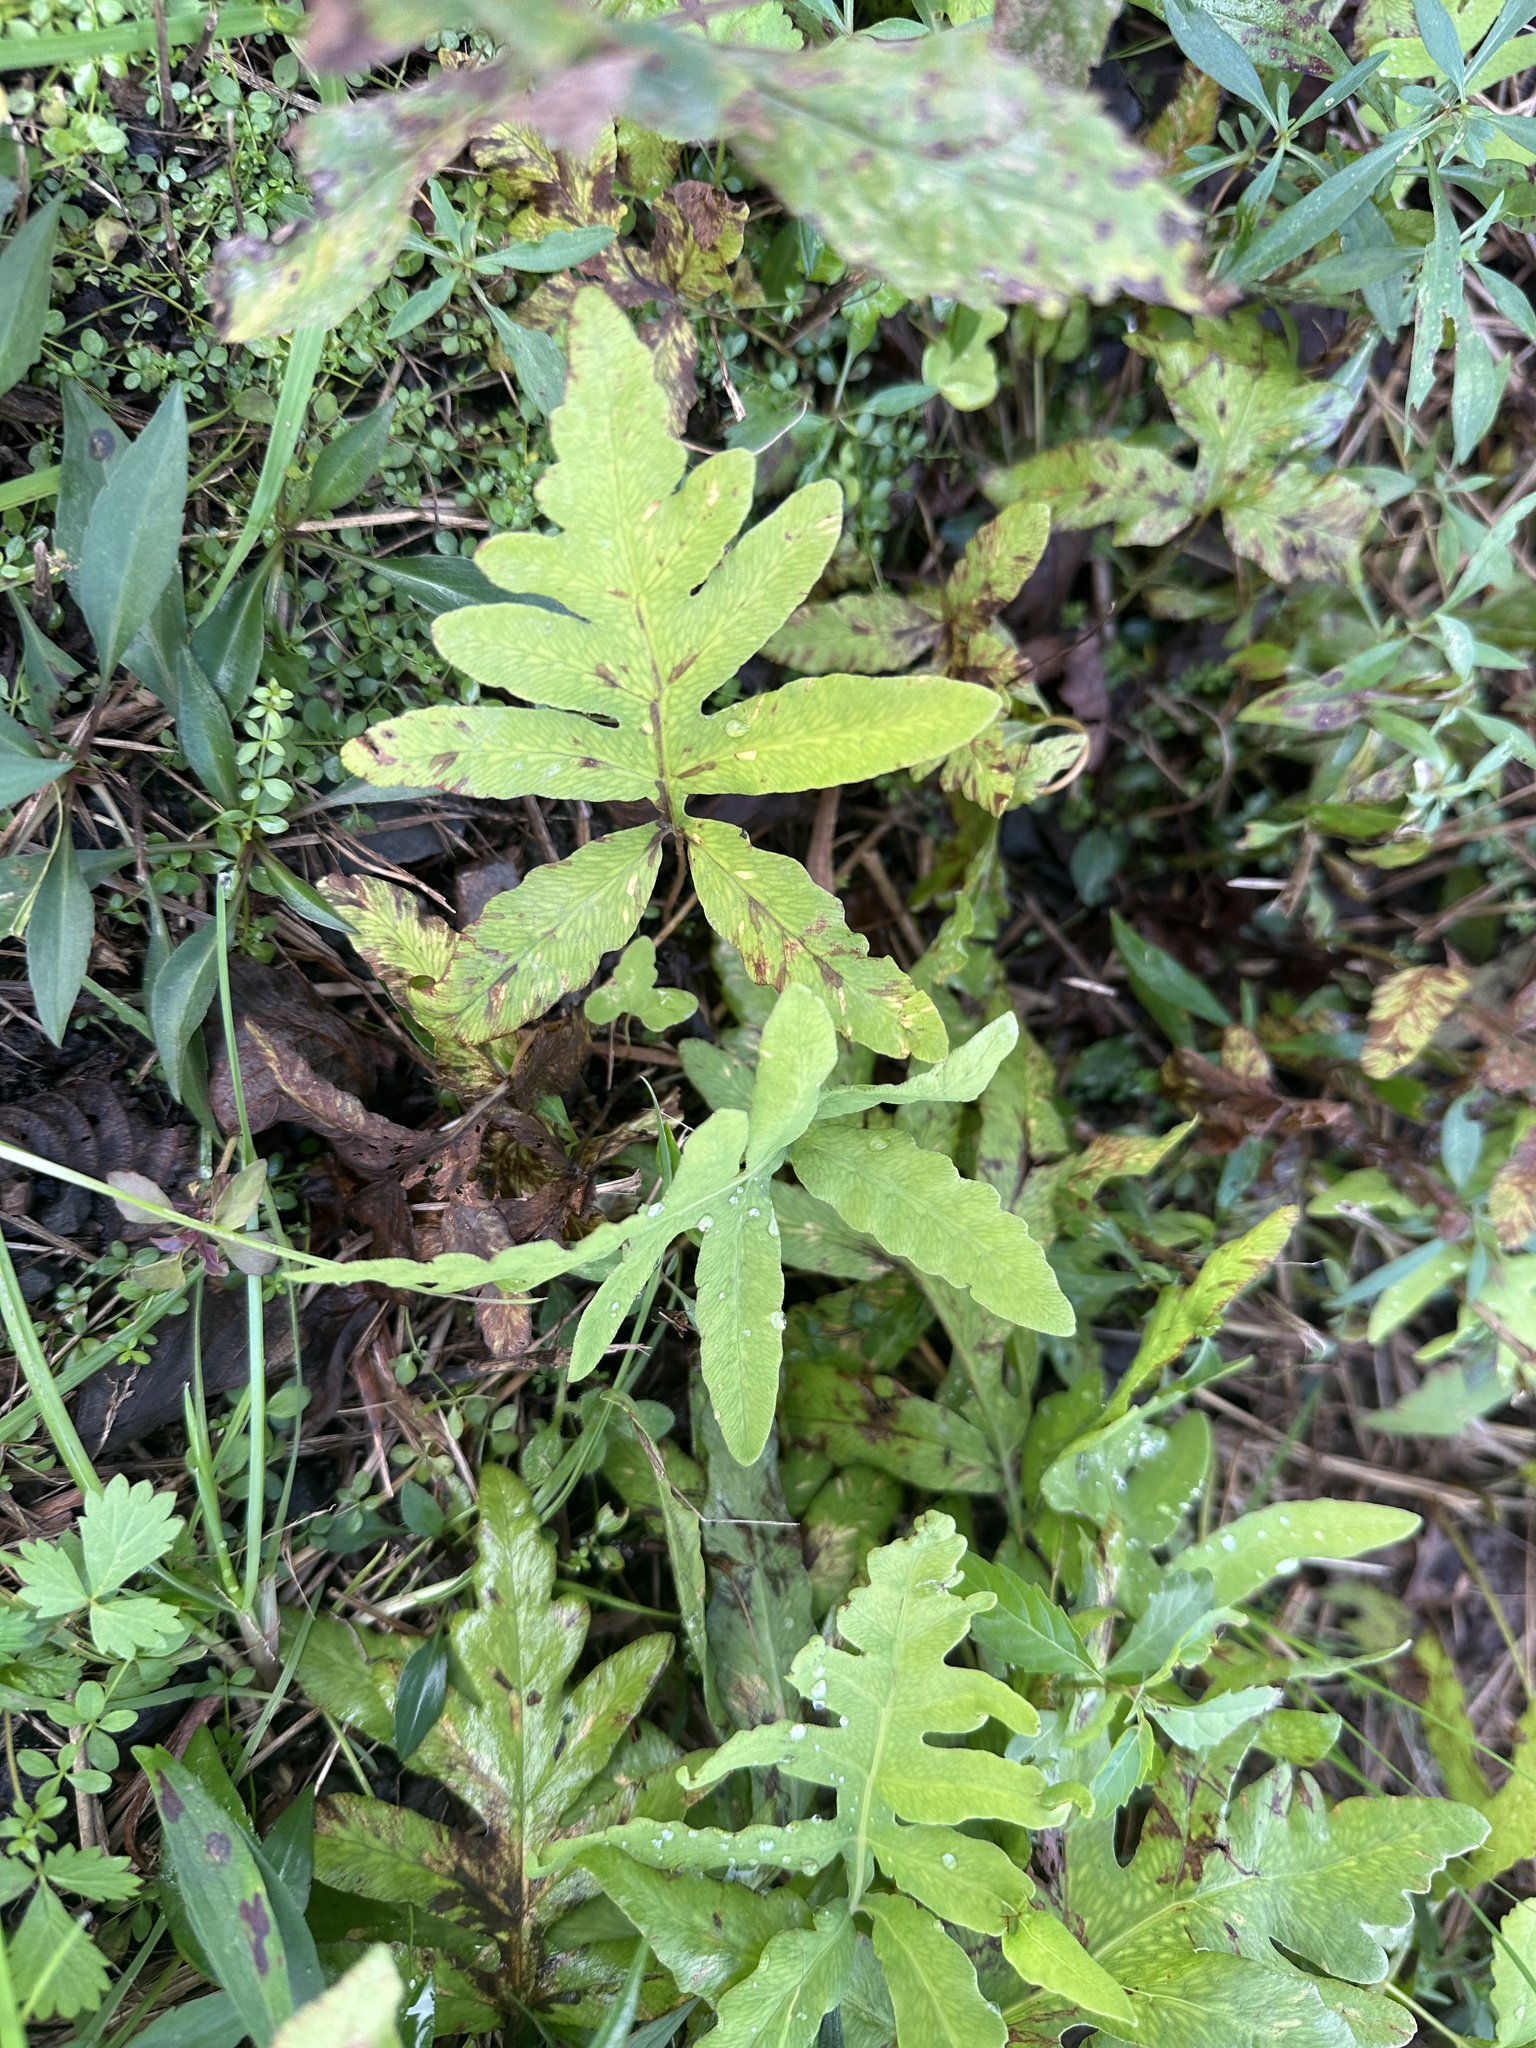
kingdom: Plantae
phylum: Tracheophyta
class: Polypodiopsida
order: Polypodiales
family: Onocleaceae
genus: Onoclea
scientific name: Onoclea sensibilis
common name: Sensitive fern
